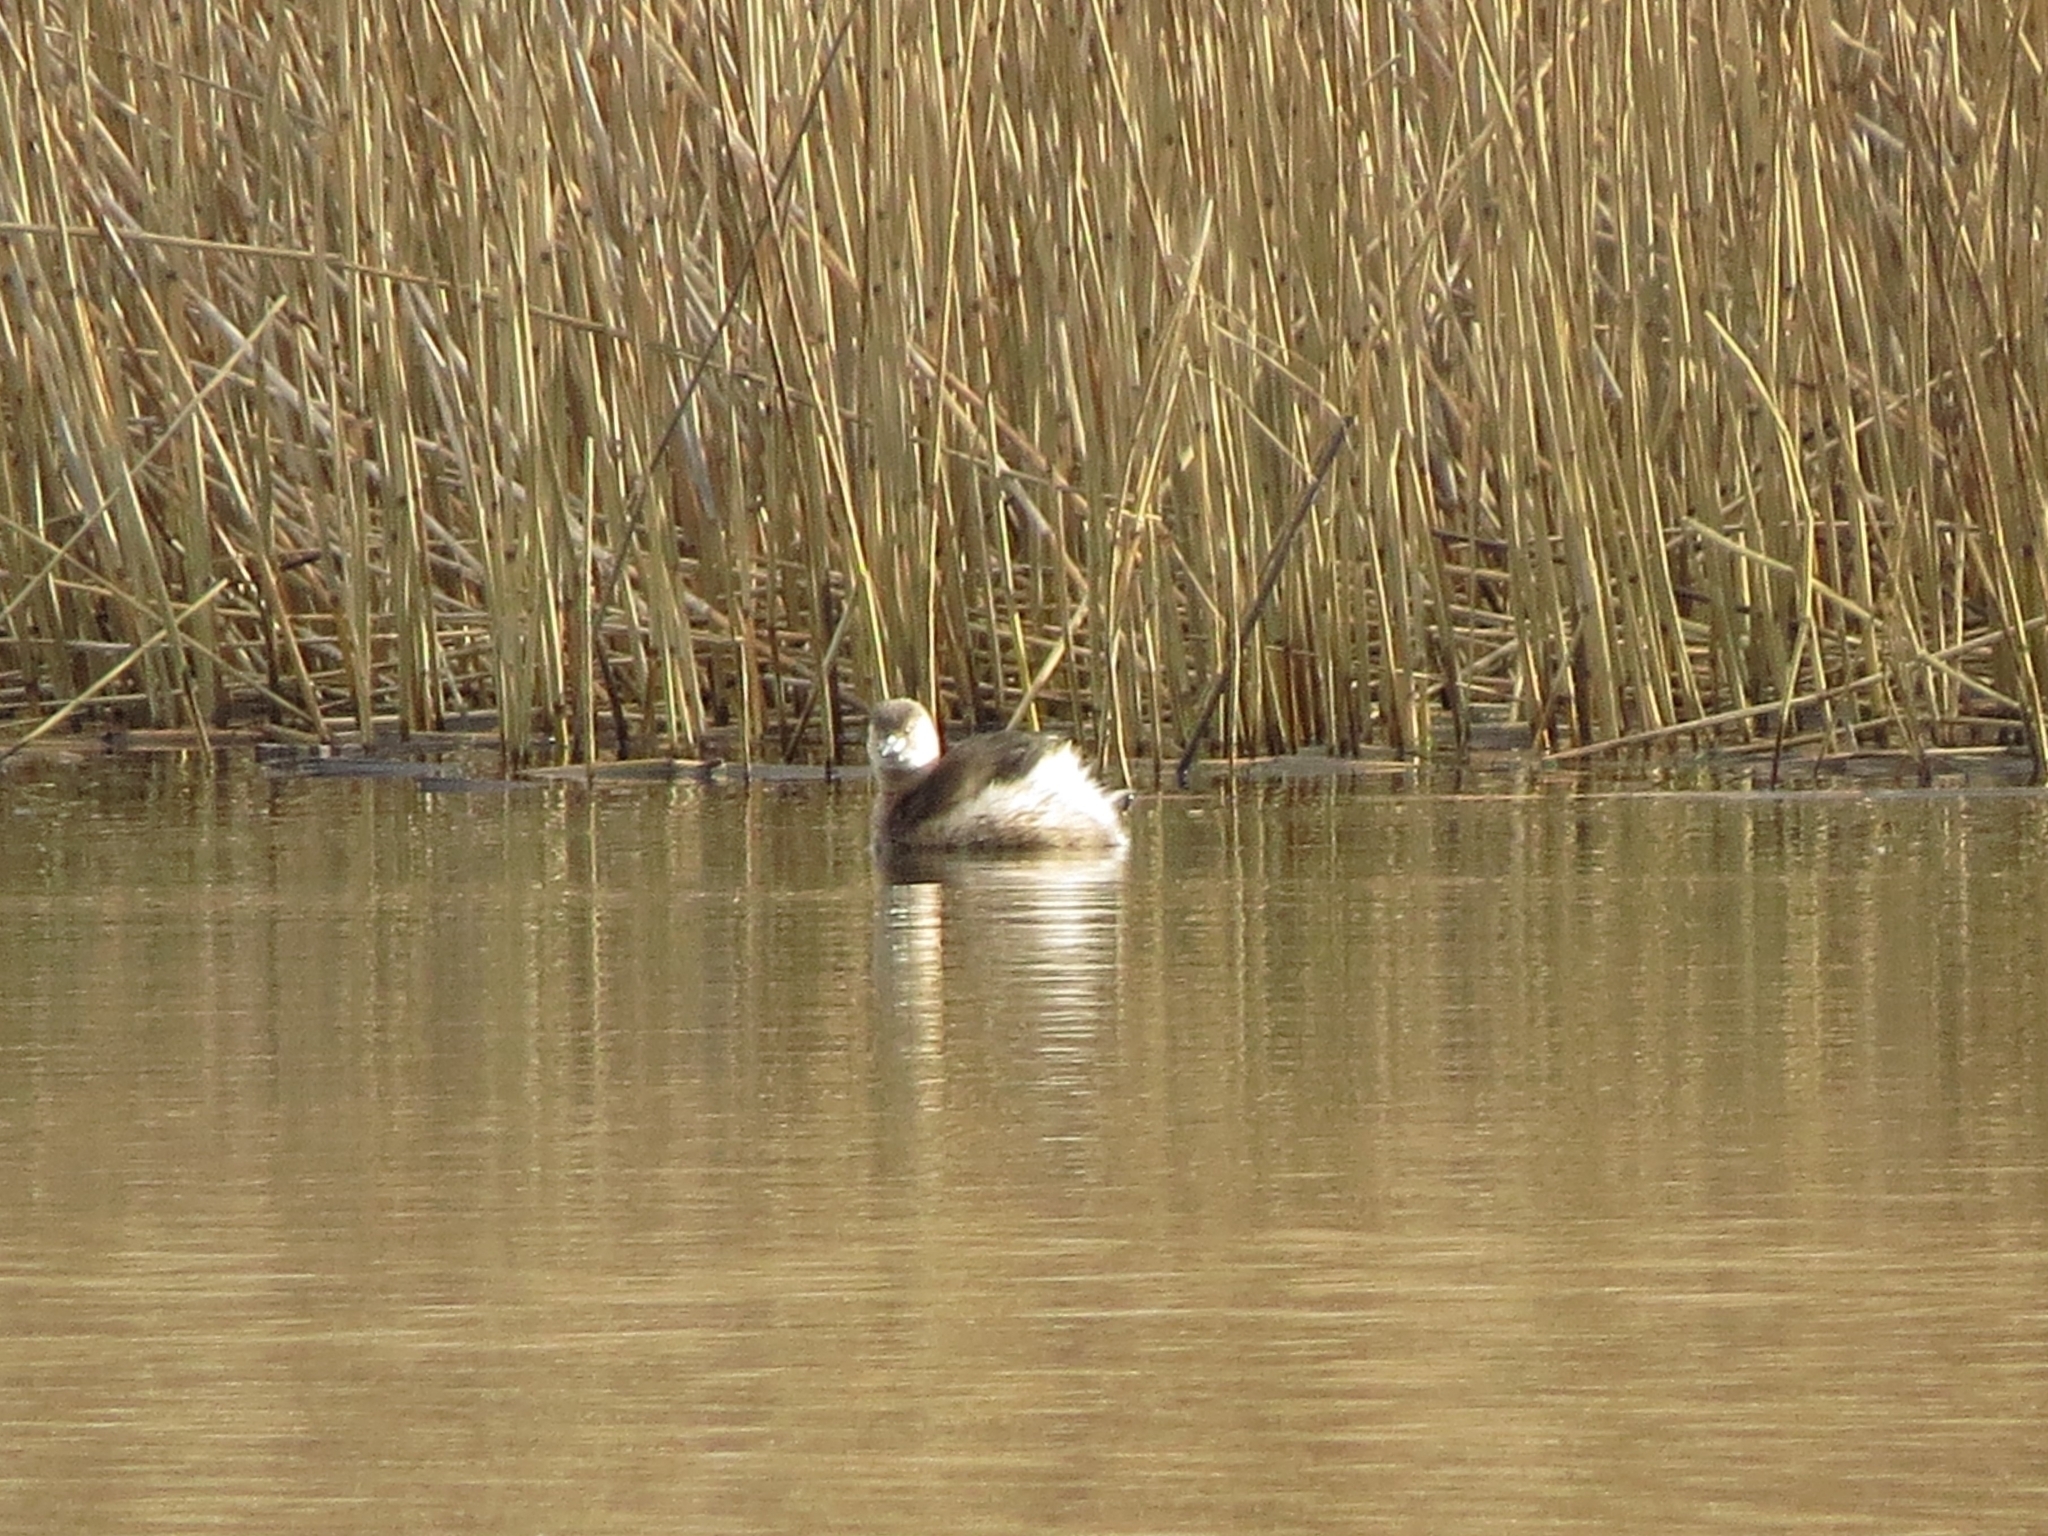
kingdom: Animalia
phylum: Chordata
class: Aves
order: Podicipediformes
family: Podicipedidae
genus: Tachybaptus
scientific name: Tachybaptus ruficollis
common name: Little grebe
